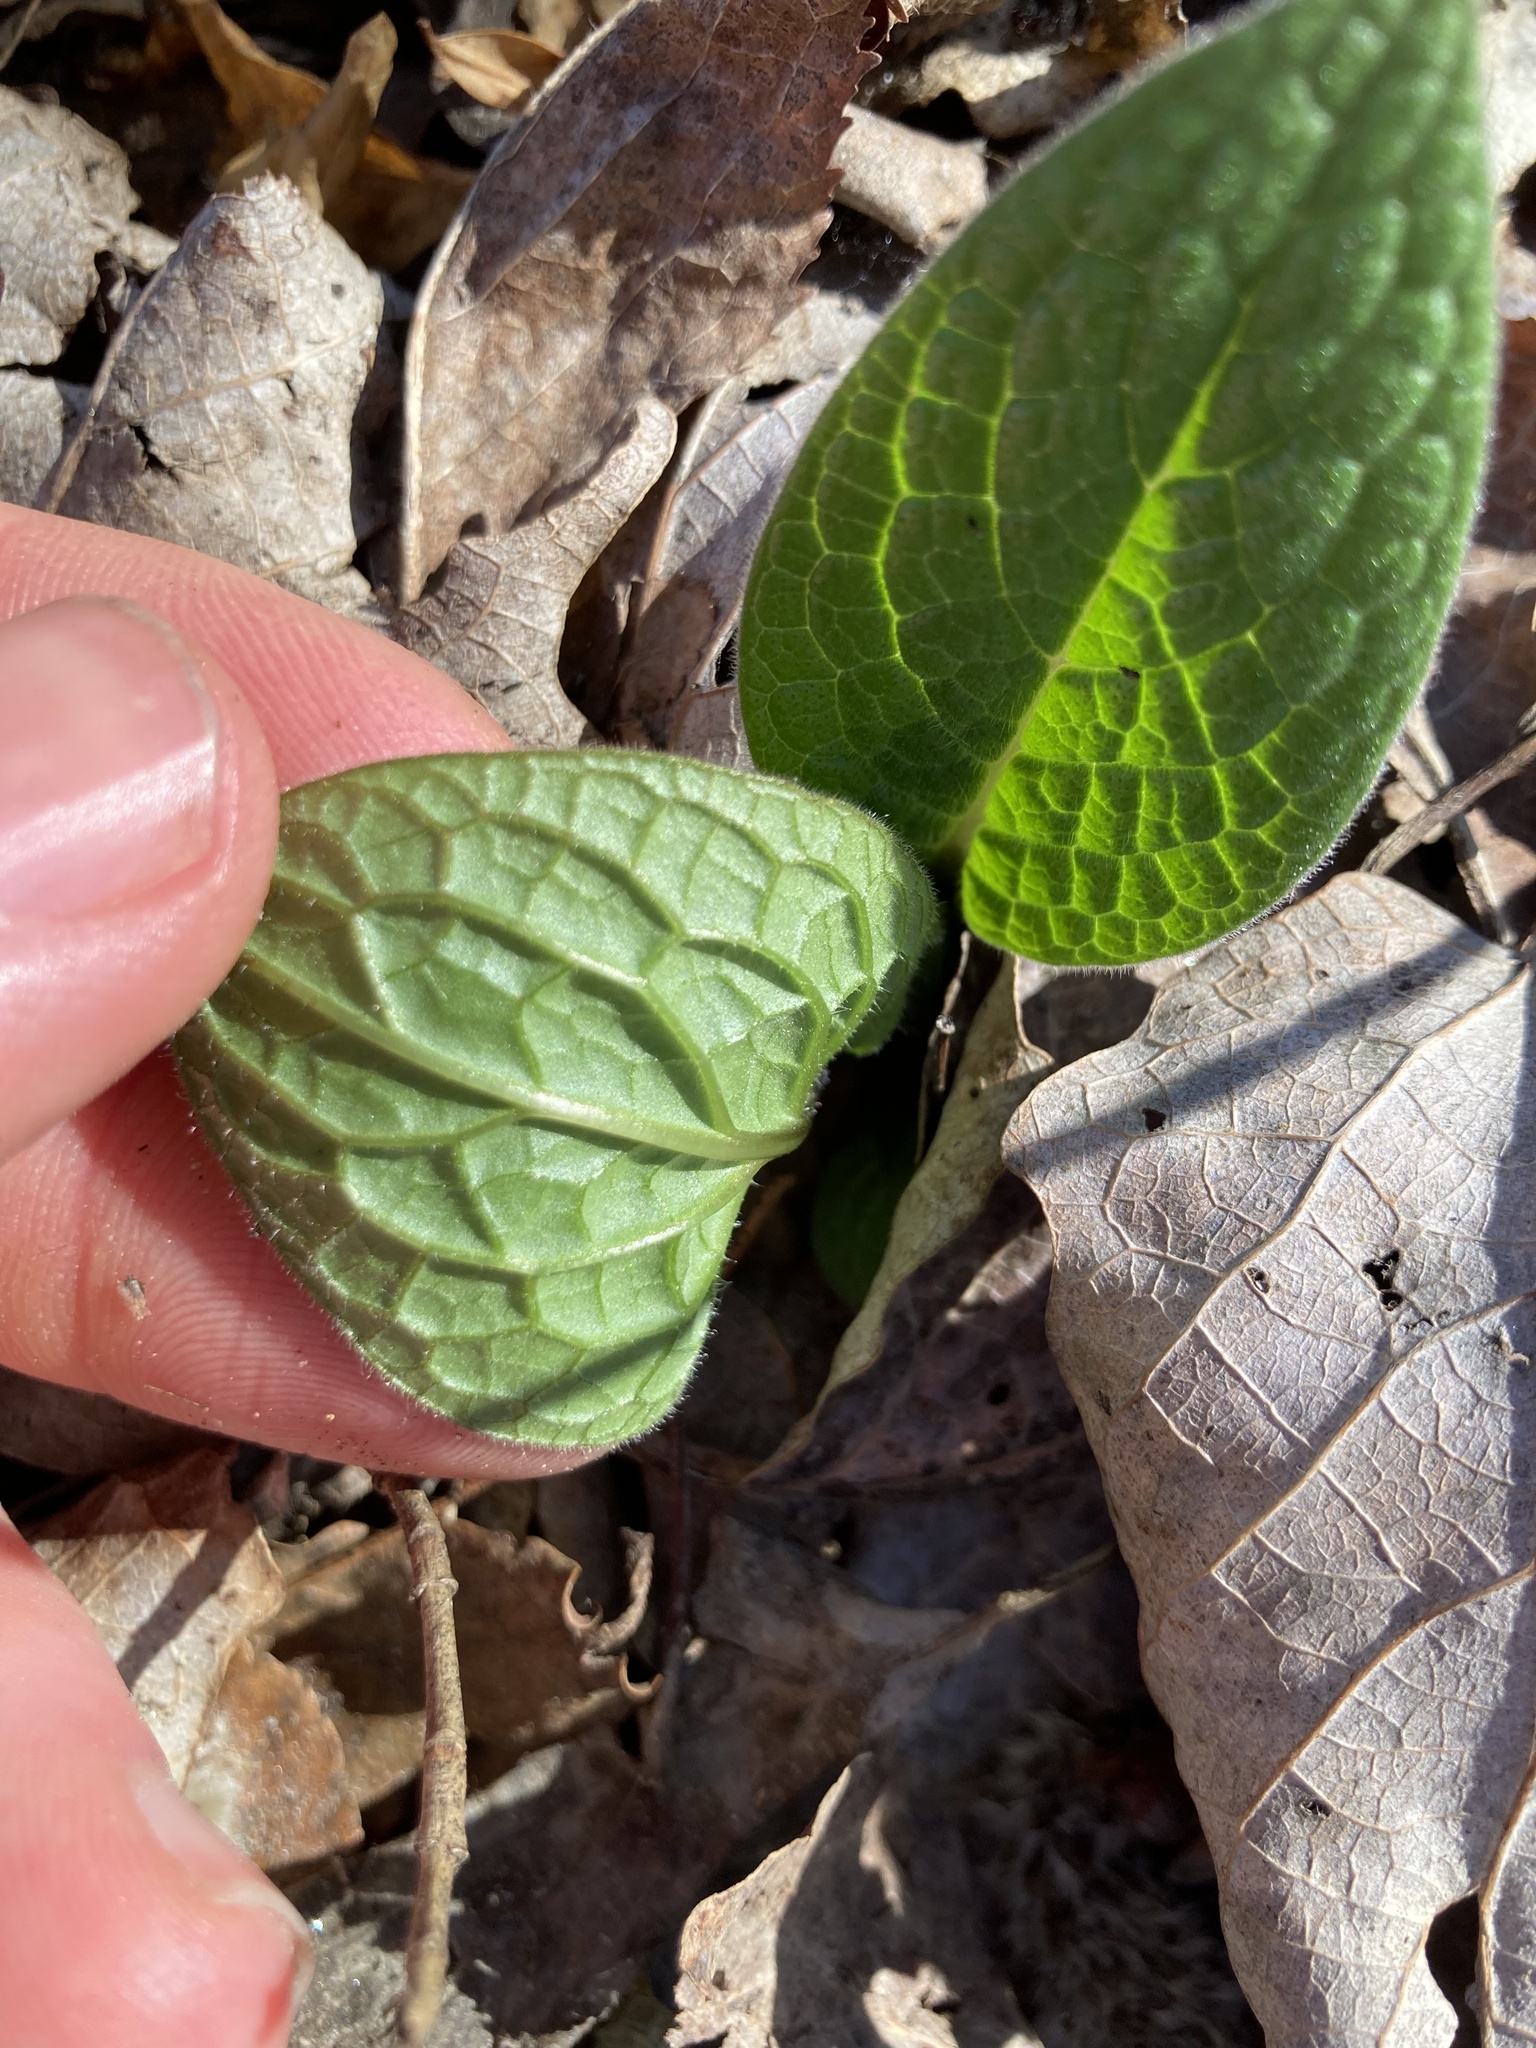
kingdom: Plantae
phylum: Tracheophyta
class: Magnoliopsida
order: Boraginales
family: Boraginaceae
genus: Symphytum
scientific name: Symphytum tuberosum
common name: Tuberous comfrey
